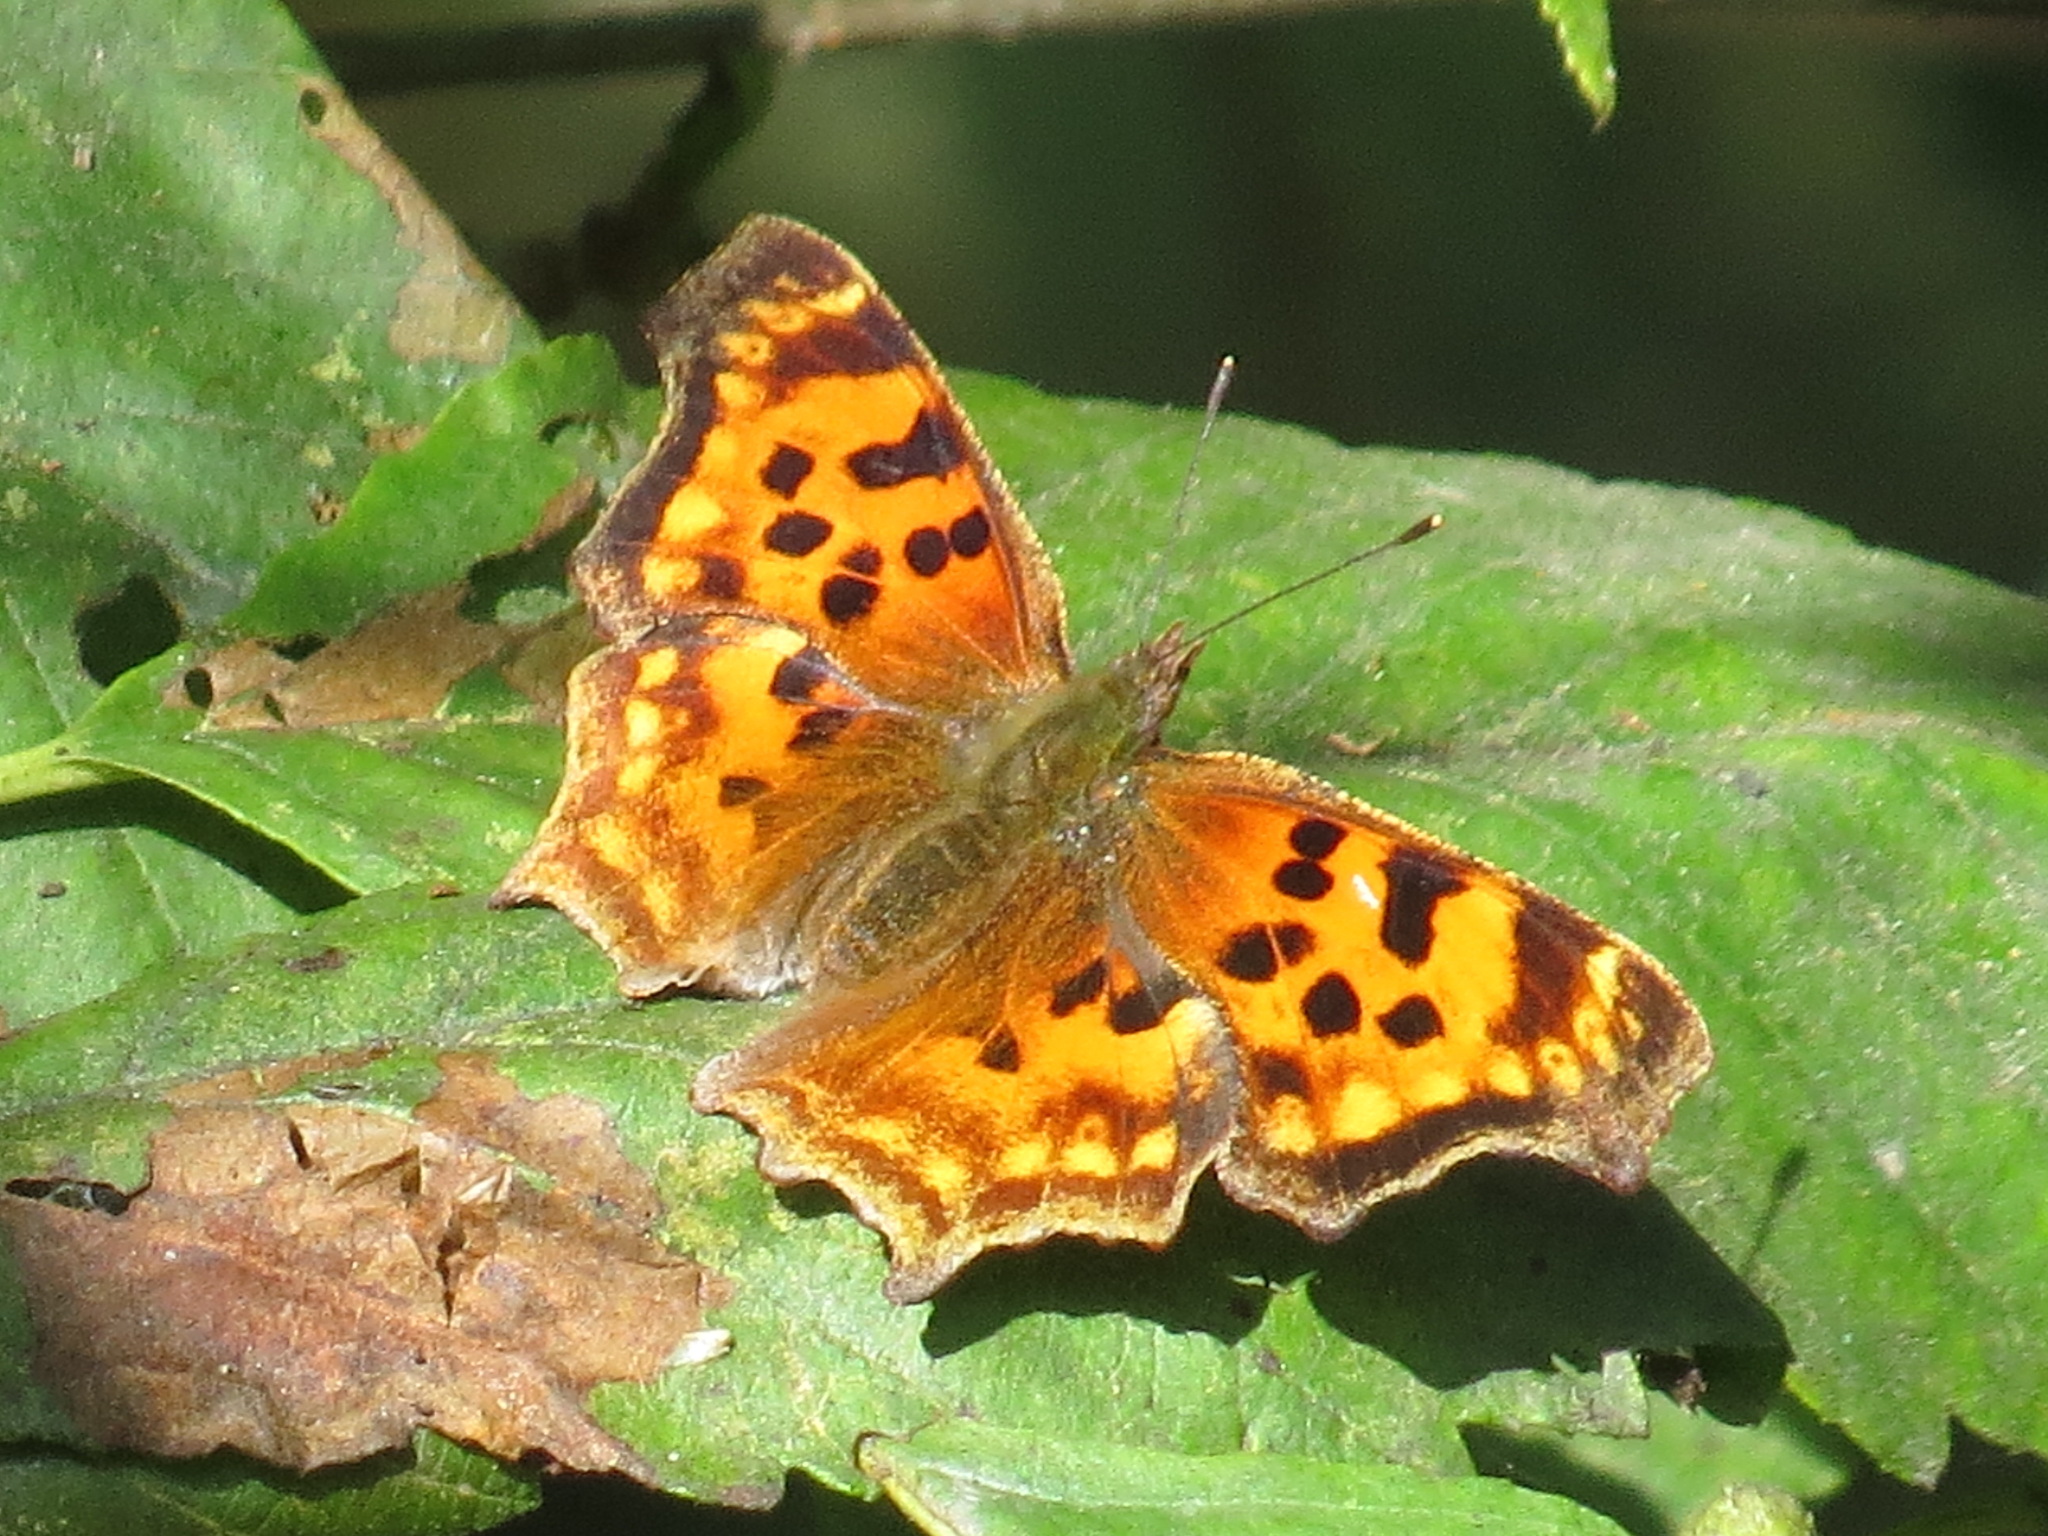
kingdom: Animalia
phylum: Arthropoda
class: Insecta
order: Lepidoptera
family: Nymphalidae
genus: Polygonia
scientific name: Polygonia satyrus
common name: Satyr angle wing
